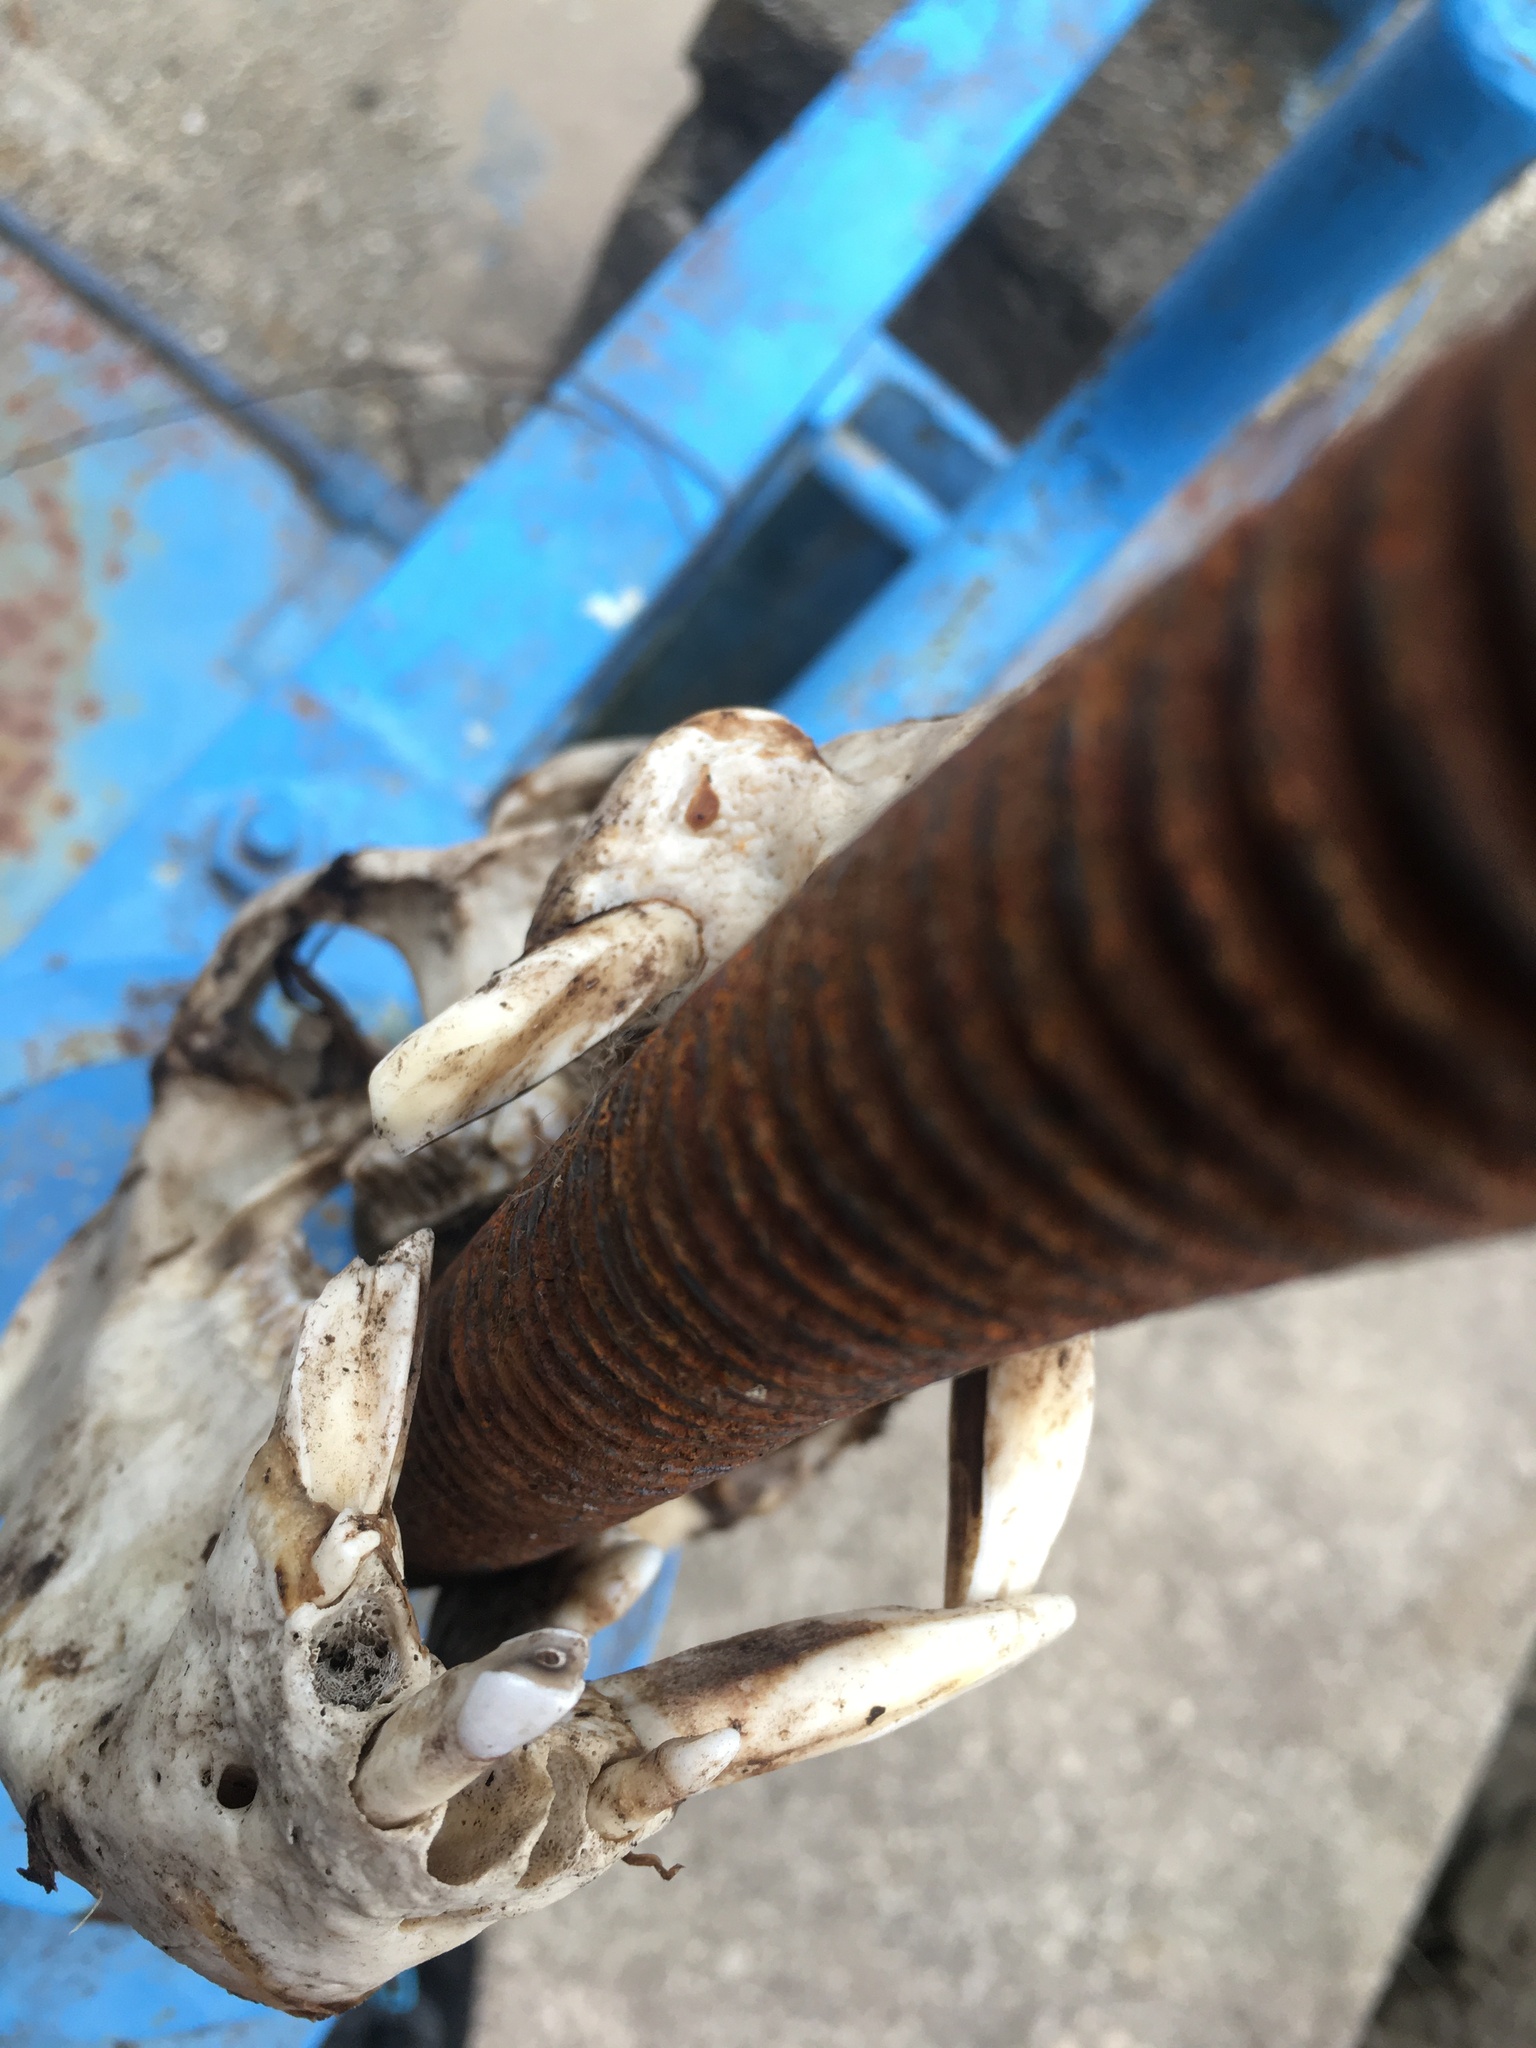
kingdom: Animalia
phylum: Chordata
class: Mammalia
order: Artiodactyla
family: Tayassuidae
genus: Pecari
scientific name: Pecari tajacu
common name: Collared peccary
